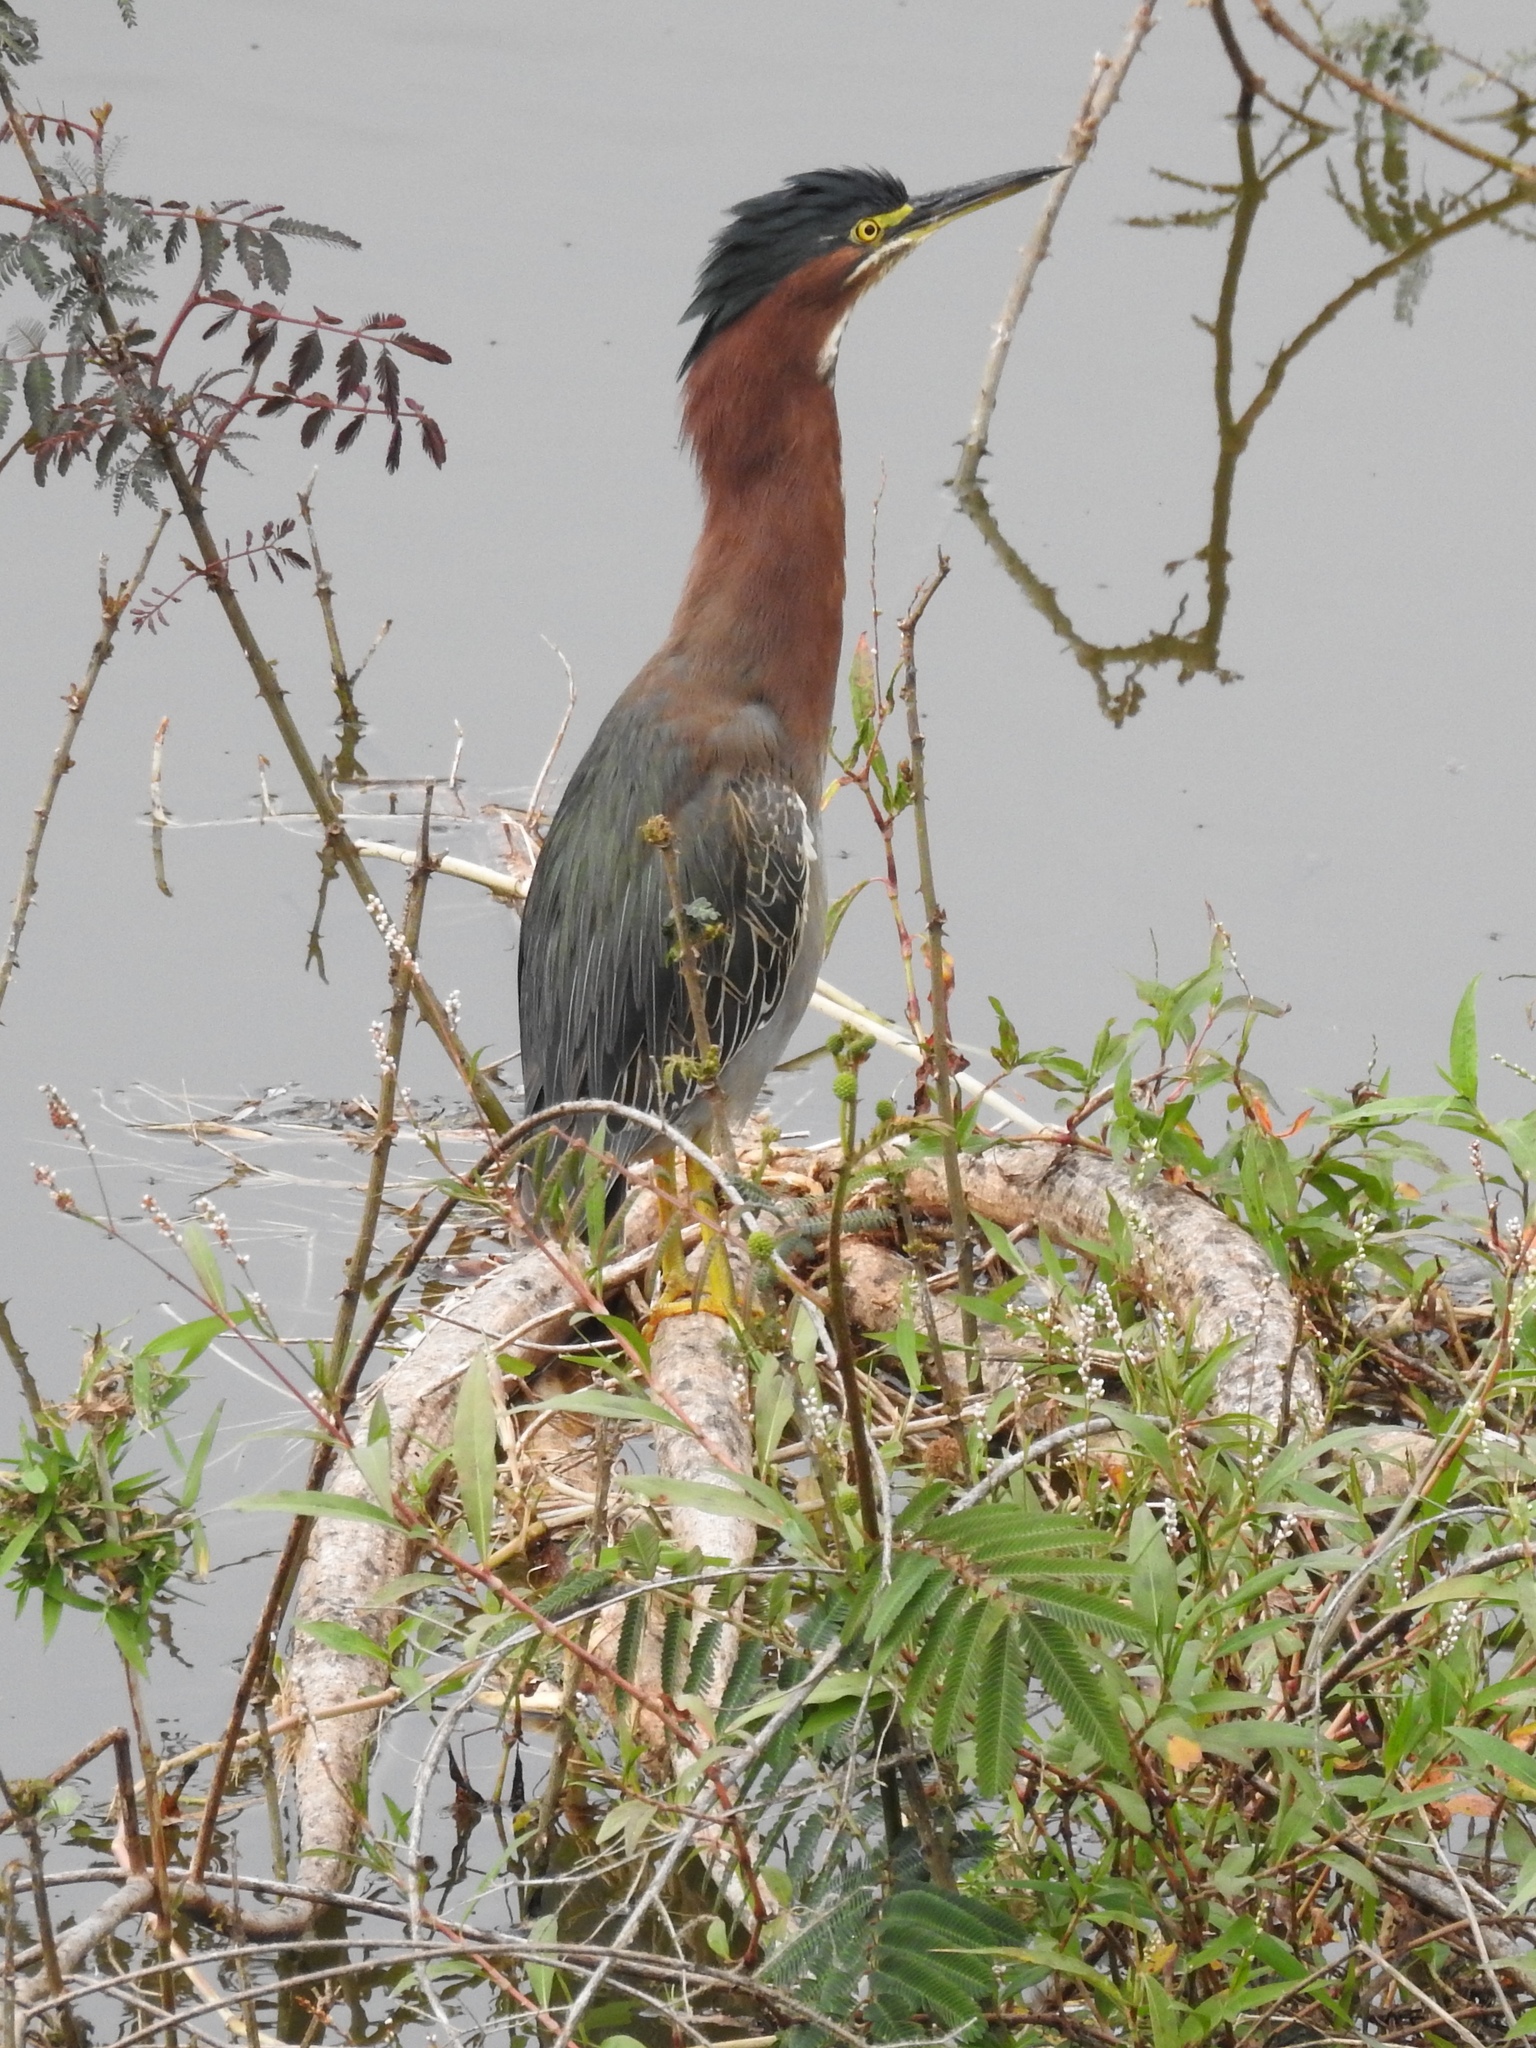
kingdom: Animalia
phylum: Chordata
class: Aves
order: Pelecaniformes
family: Ardeidae
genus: Butorides
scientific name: Butorides virescens
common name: Green heron
